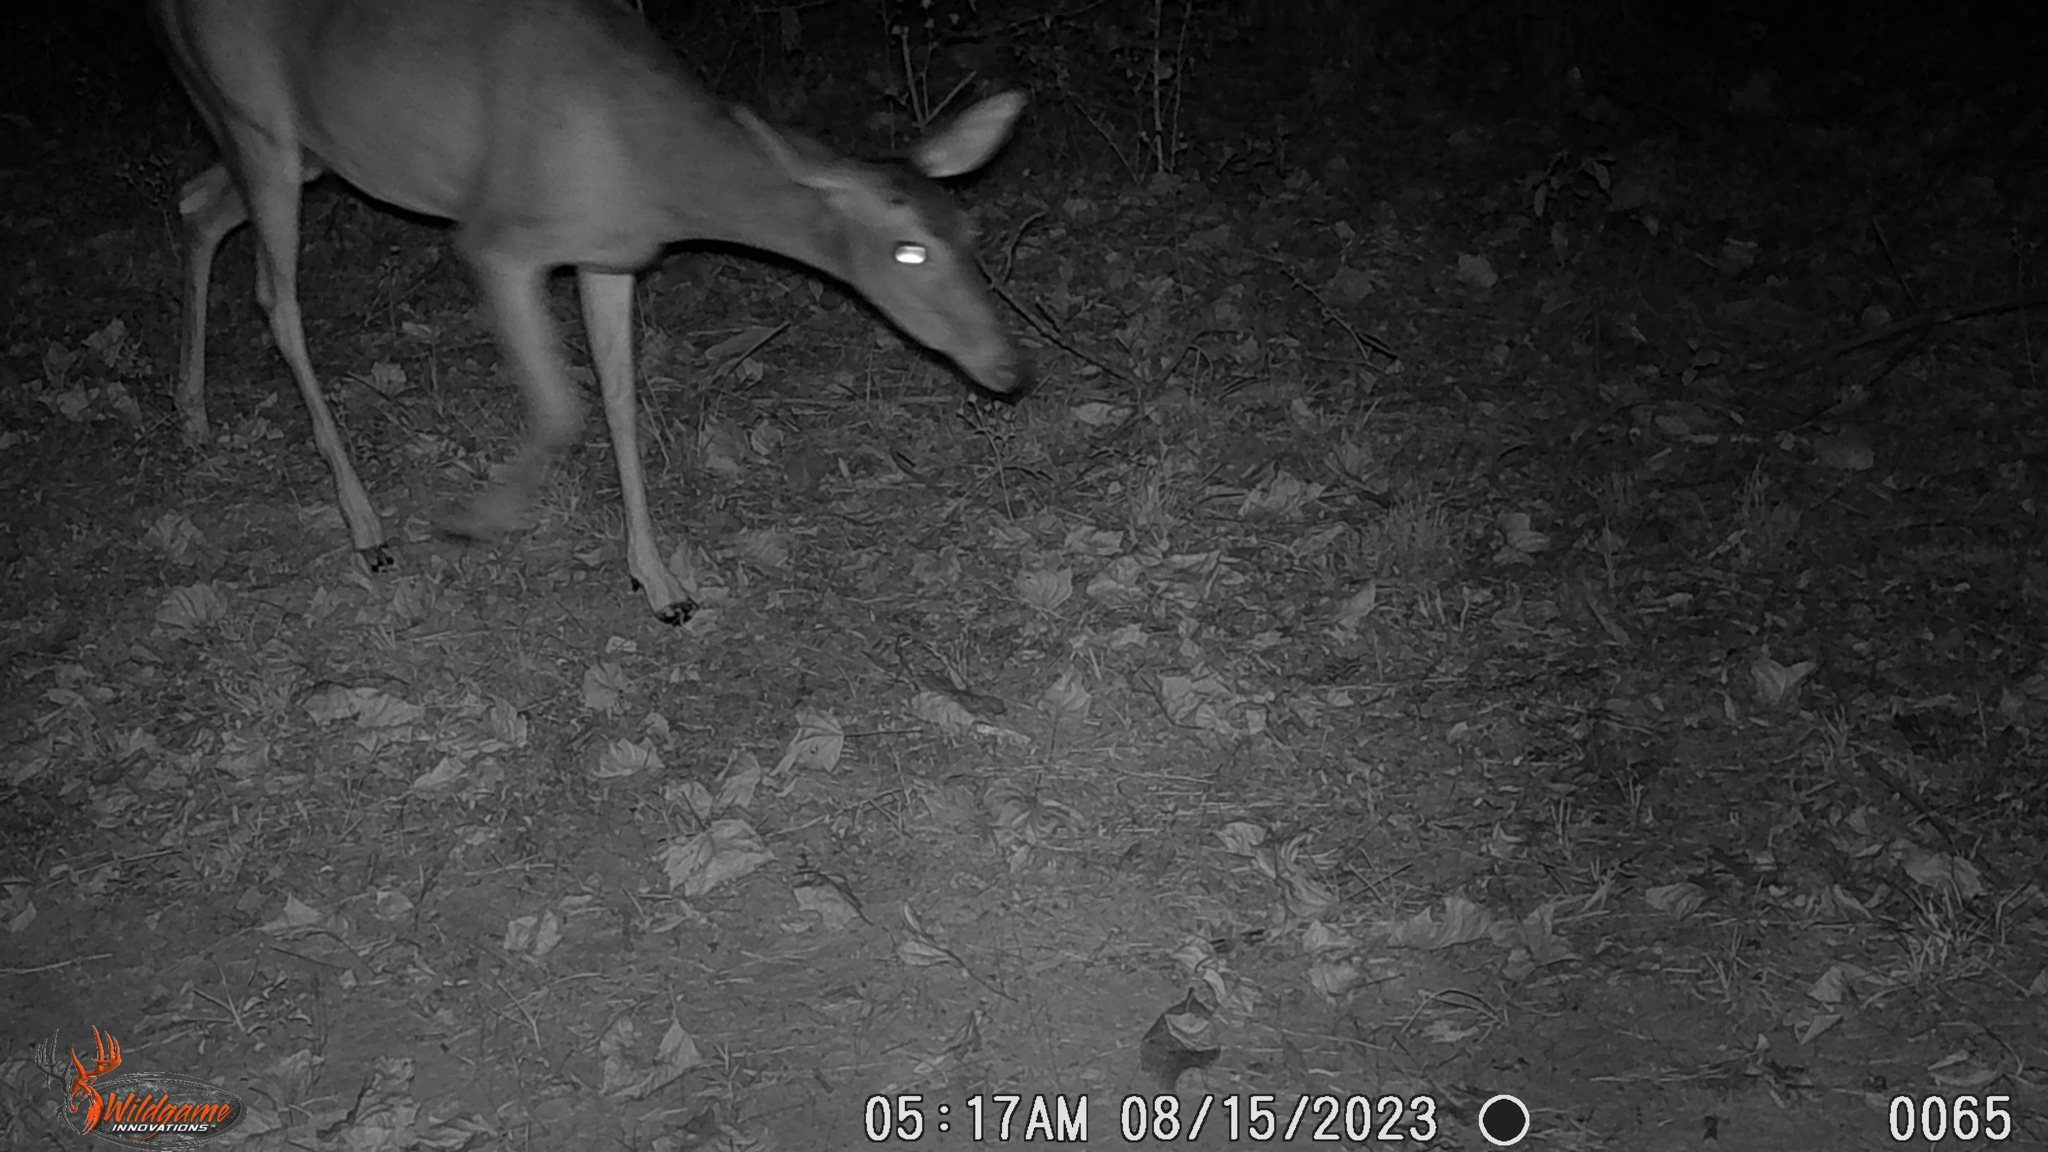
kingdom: Animalia
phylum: Chordata
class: Mammalia
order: Artiodactyla
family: Cervidae
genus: Odocoileus
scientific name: Odocoileus virginianus
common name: White-tailed deer
